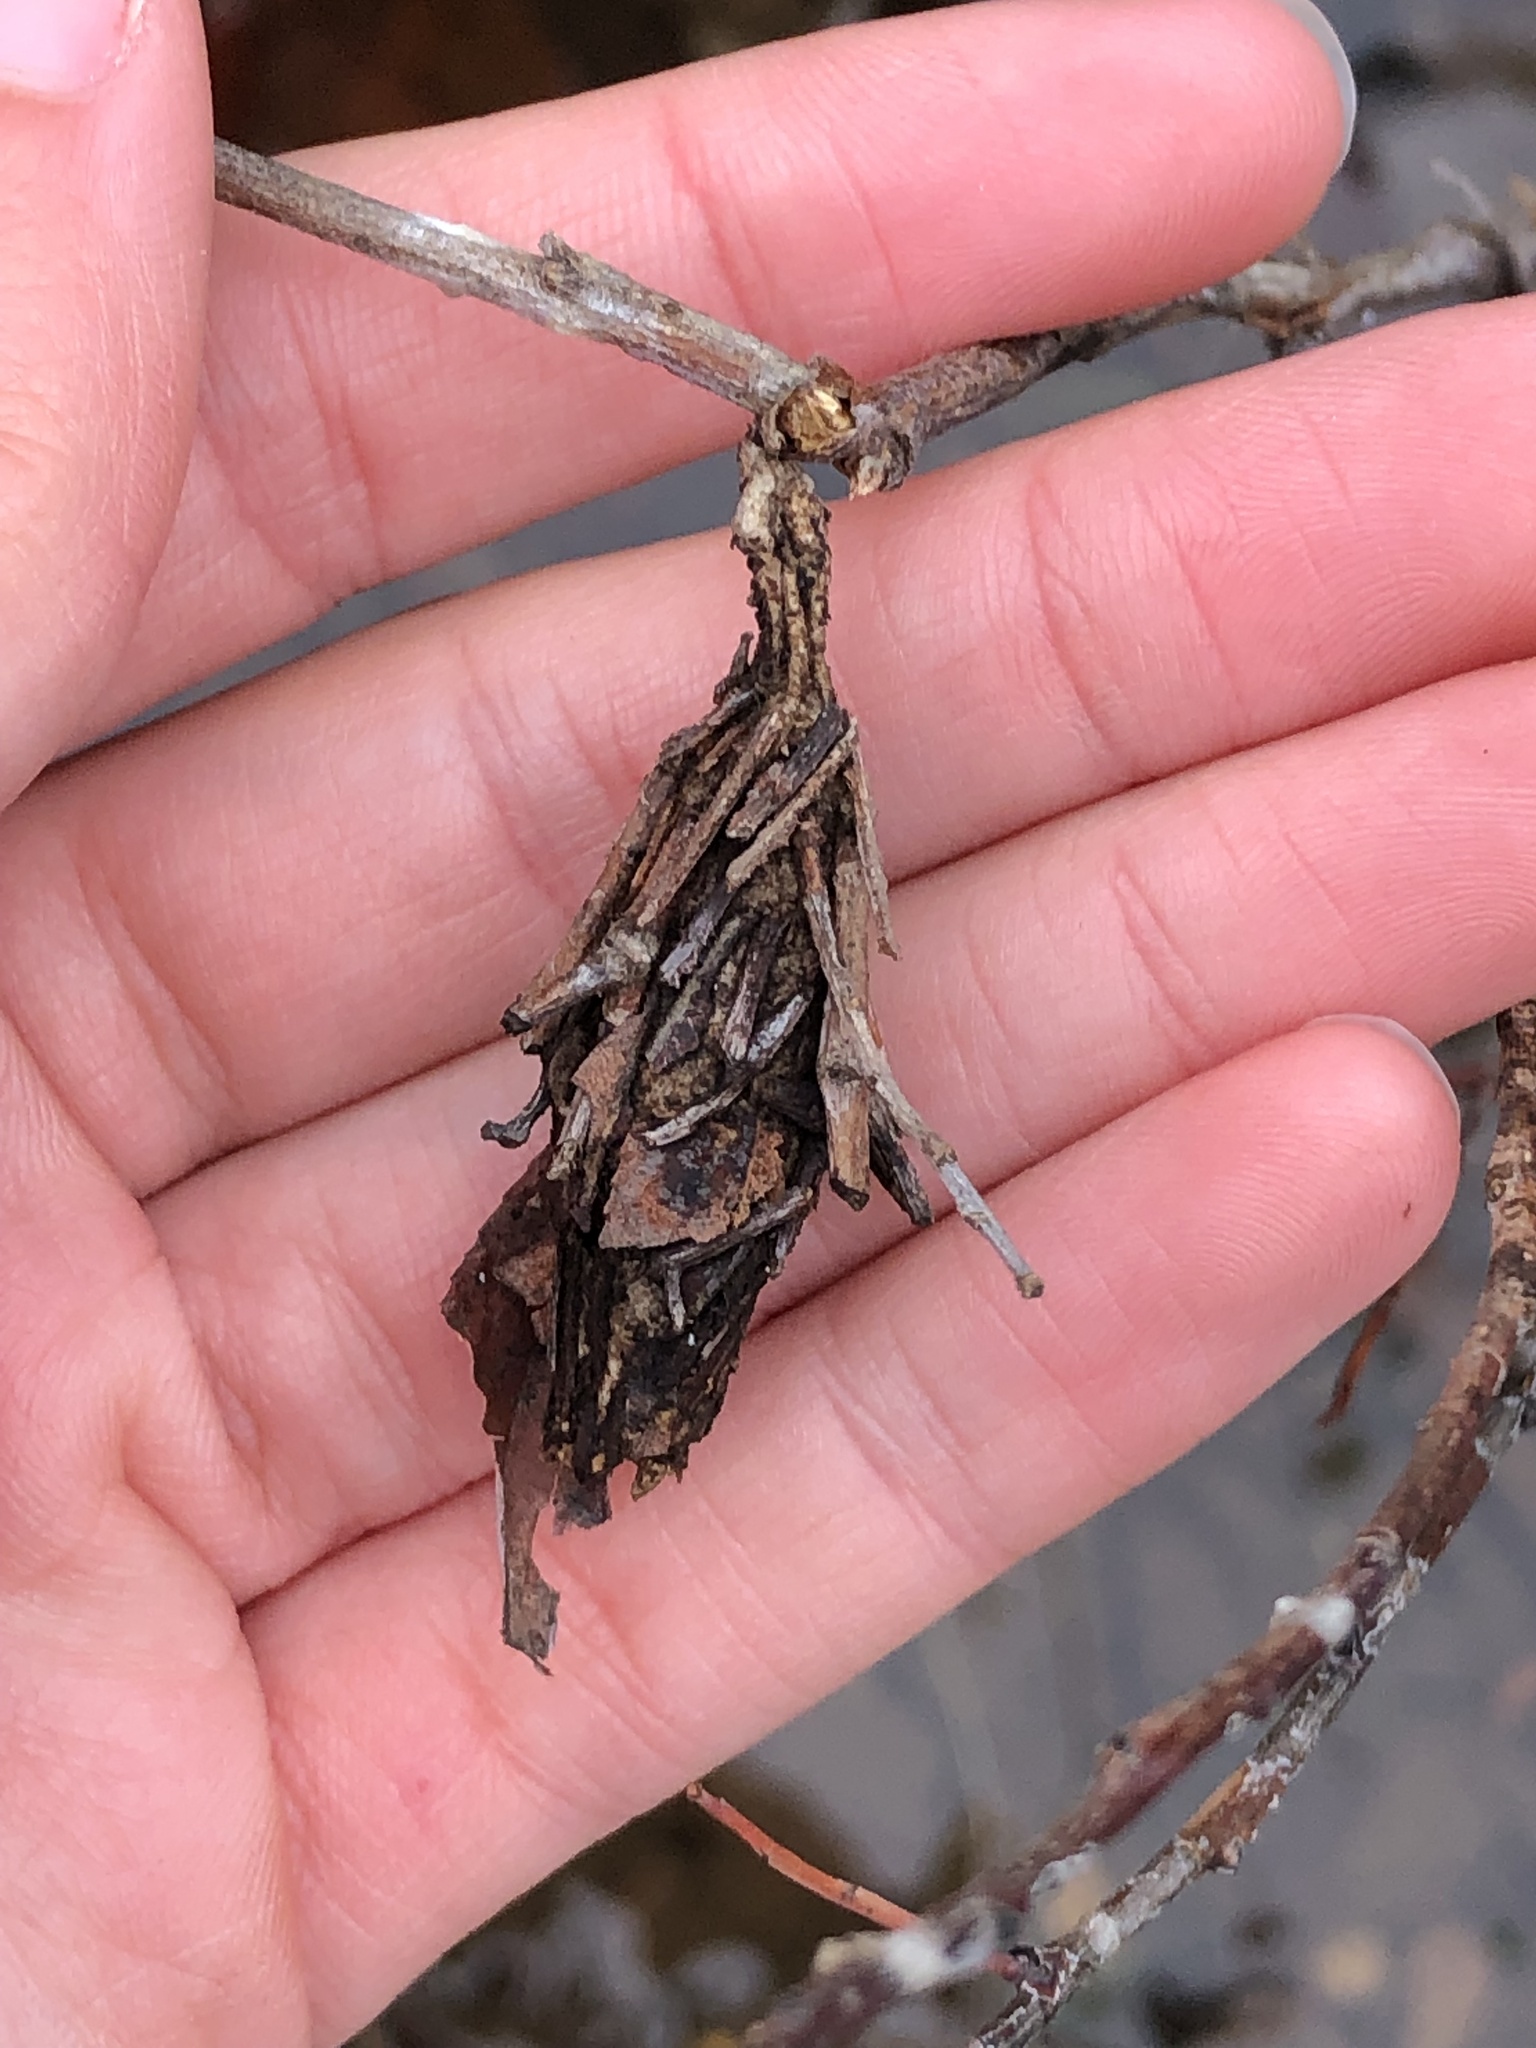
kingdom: Animalia
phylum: Arthropoda
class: Insecta
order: Lepidoptera
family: Psychidae
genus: Thyridopteryx
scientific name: Thyridopteryx ephemeraeformis
